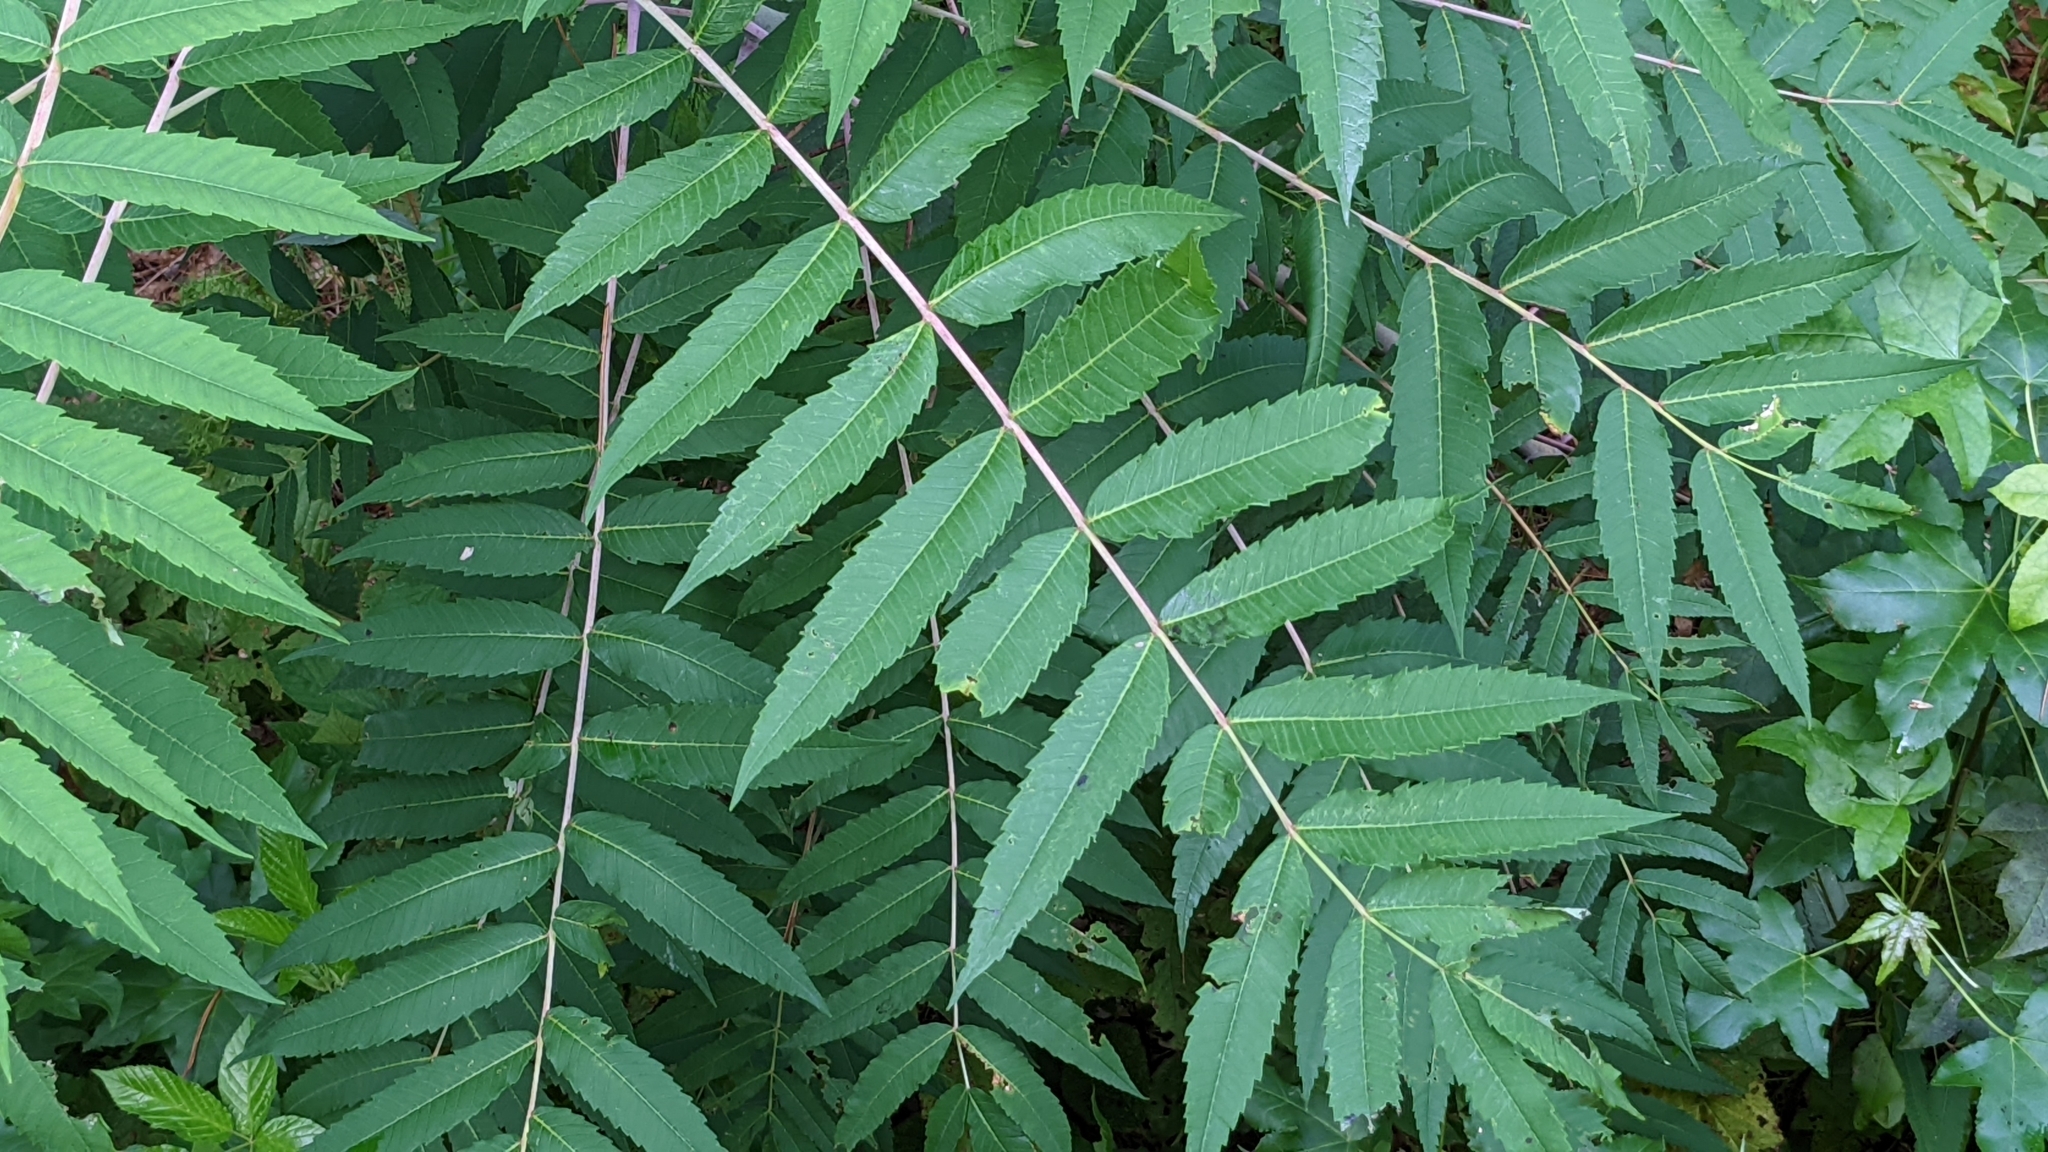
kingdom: Plantae
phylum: Tracheophyta
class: Magnoliopsida
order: Sapindales
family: Anacardiaceae
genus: Rhus
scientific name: Rhus glabra
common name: Scarlet sumac
